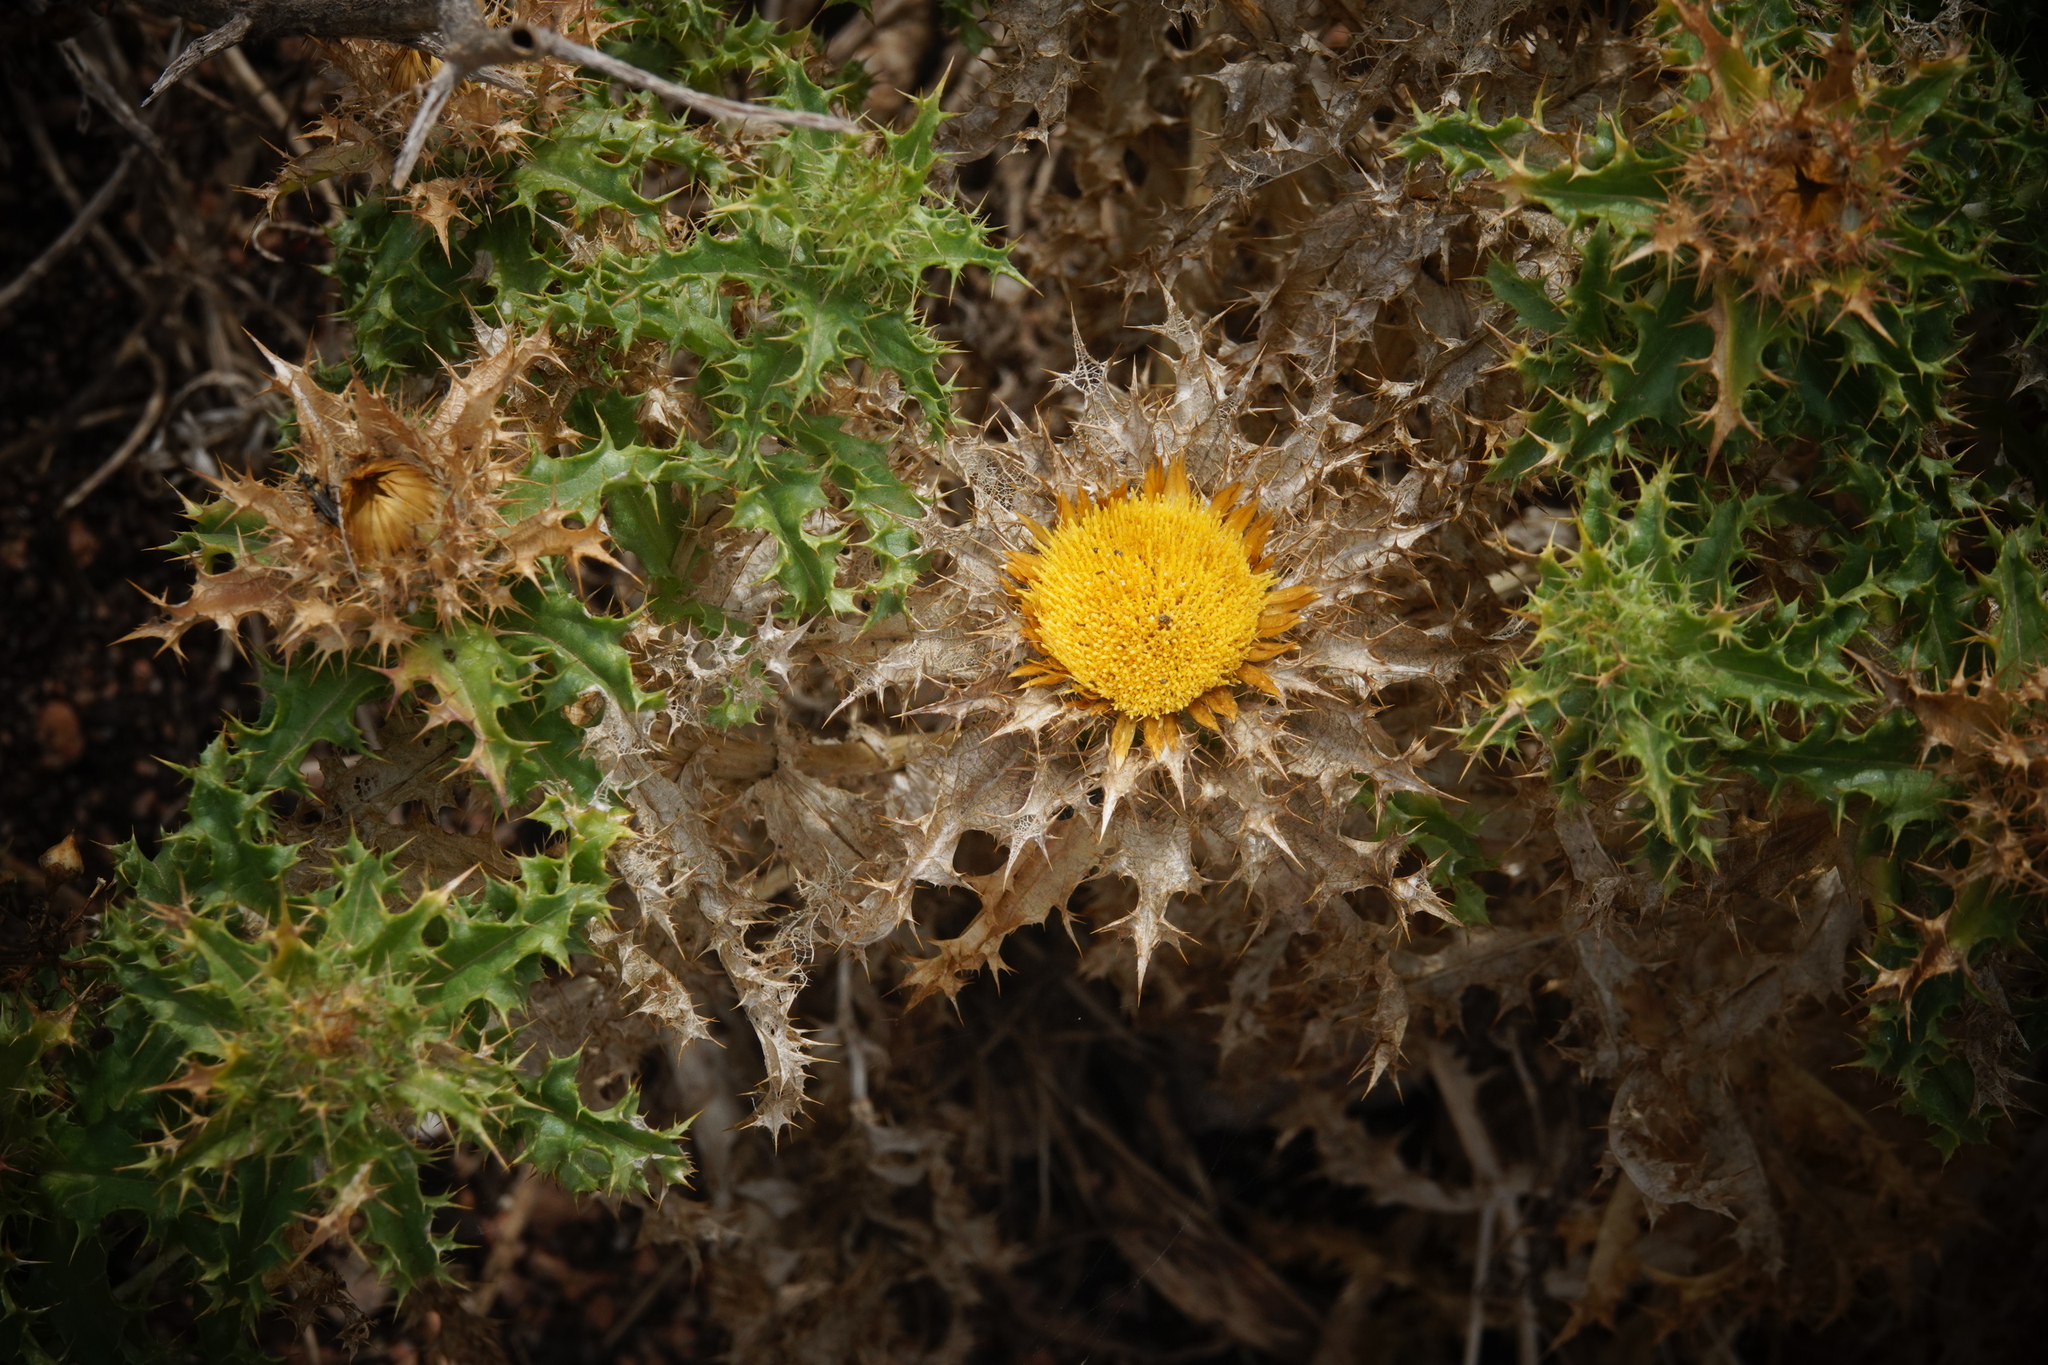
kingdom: Plantae
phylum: Tracheophyta
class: Magnoliopsida
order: Asterales
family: Asteraceae
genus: Carlina
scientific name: Carlina hispanica
